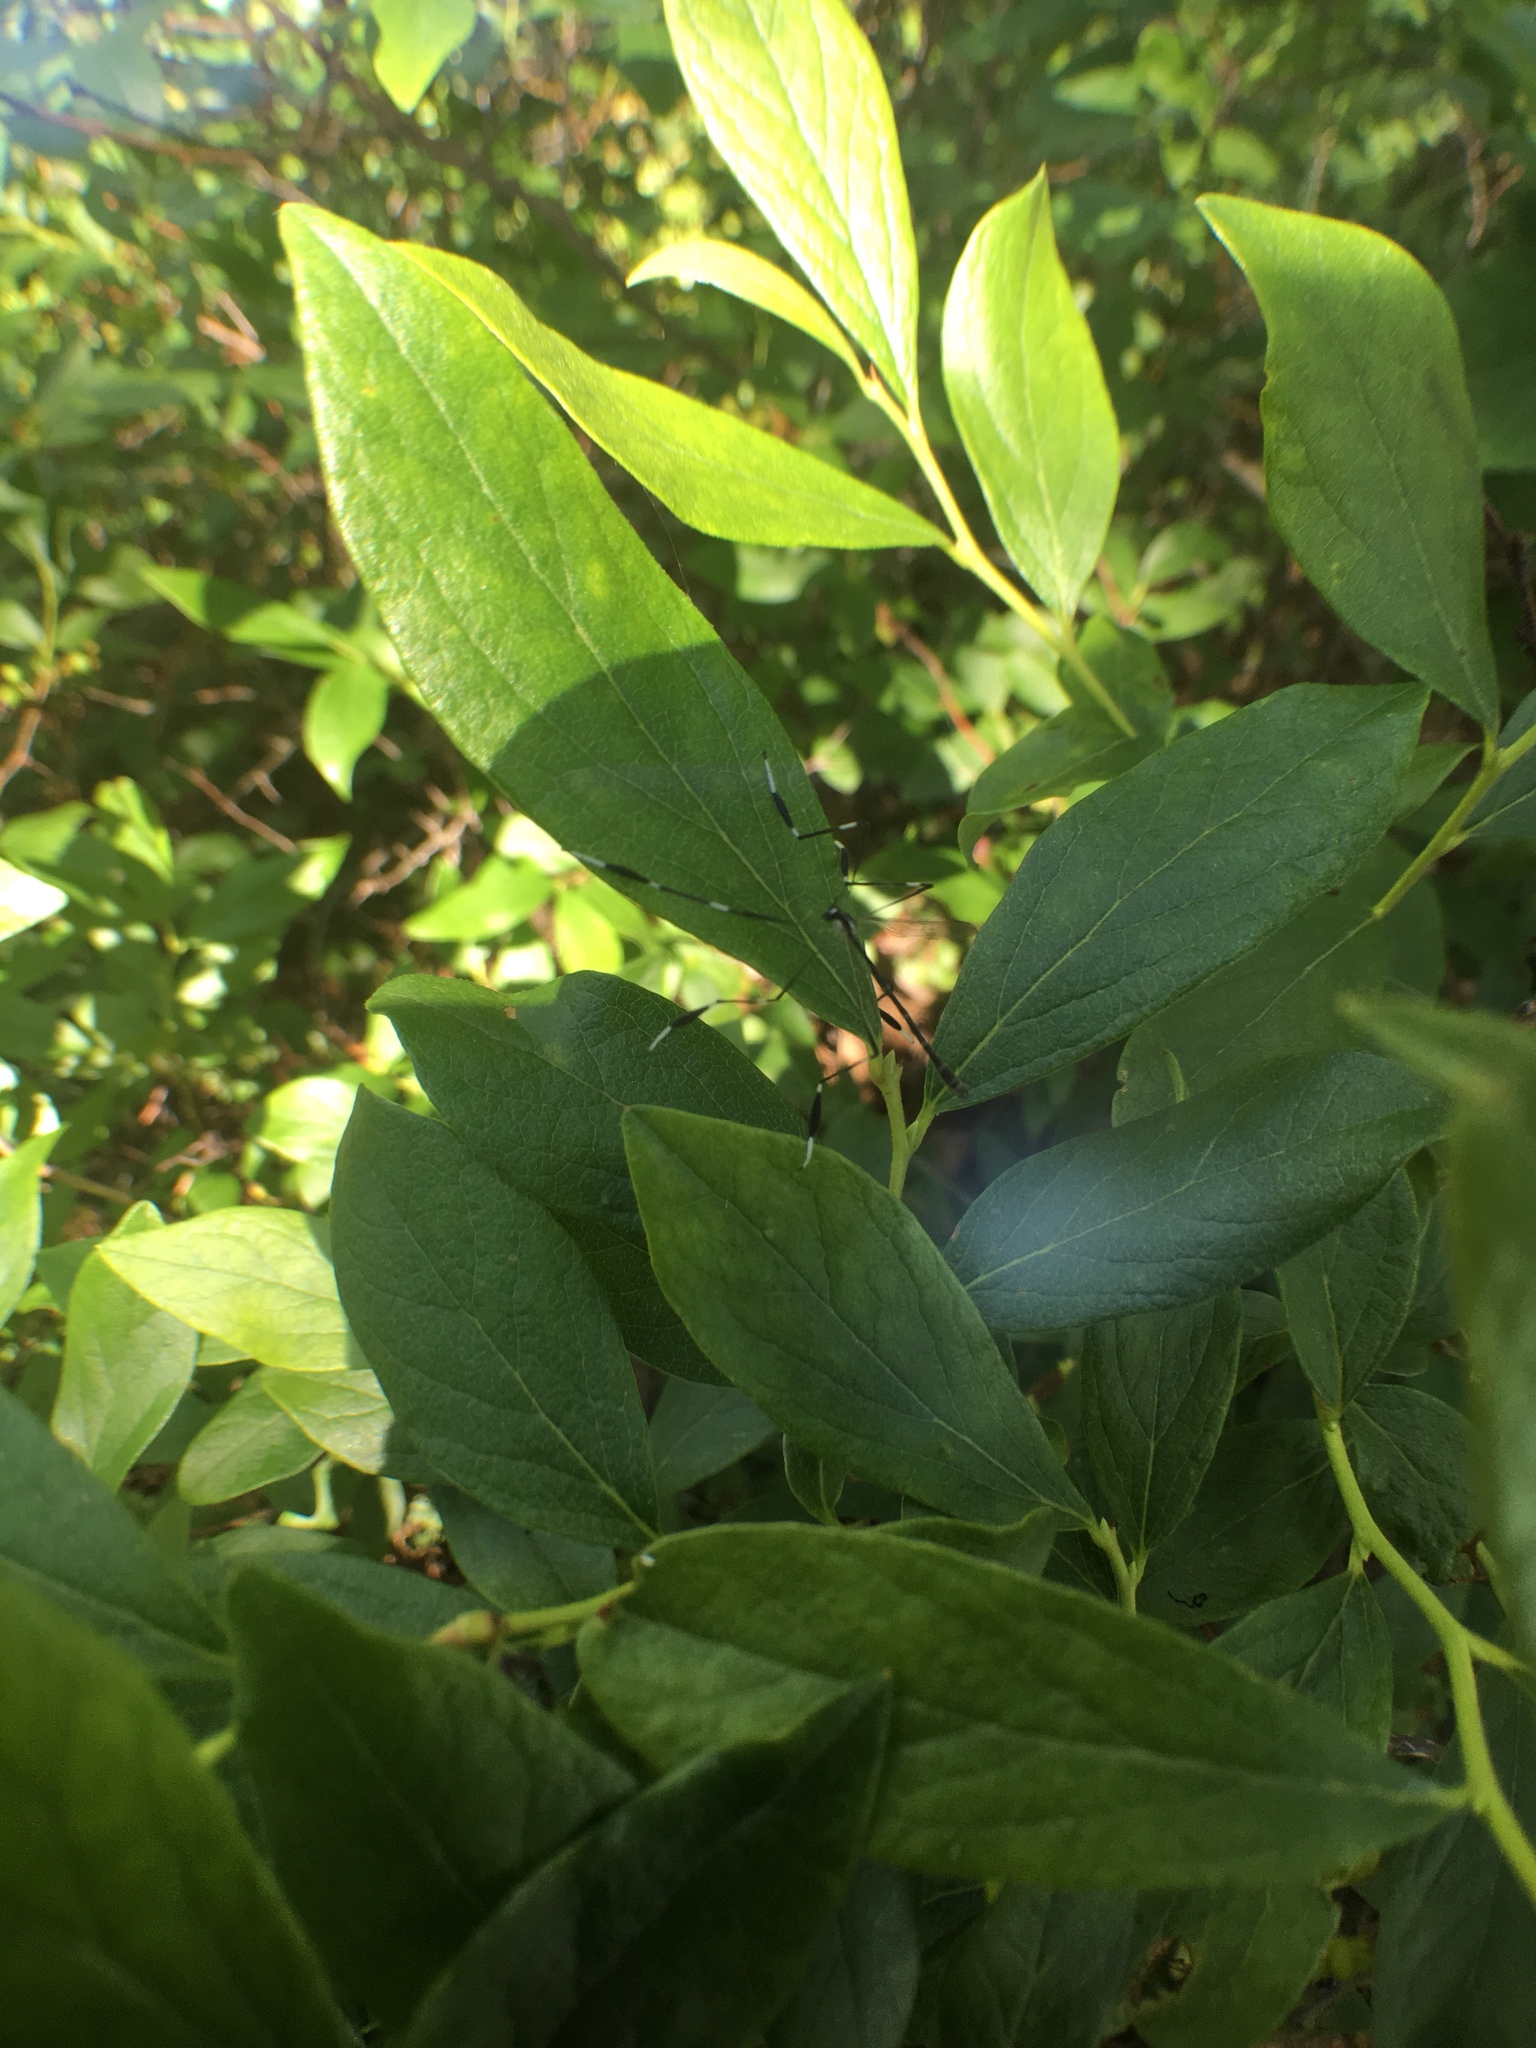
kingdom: Animalia
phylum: Arthropoda
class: Insecta
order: Diptera
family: Ptychopteridae
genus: Bittacomorpha
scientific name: Bittacomorpha clavipes
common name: Eastern phantom crane fly
